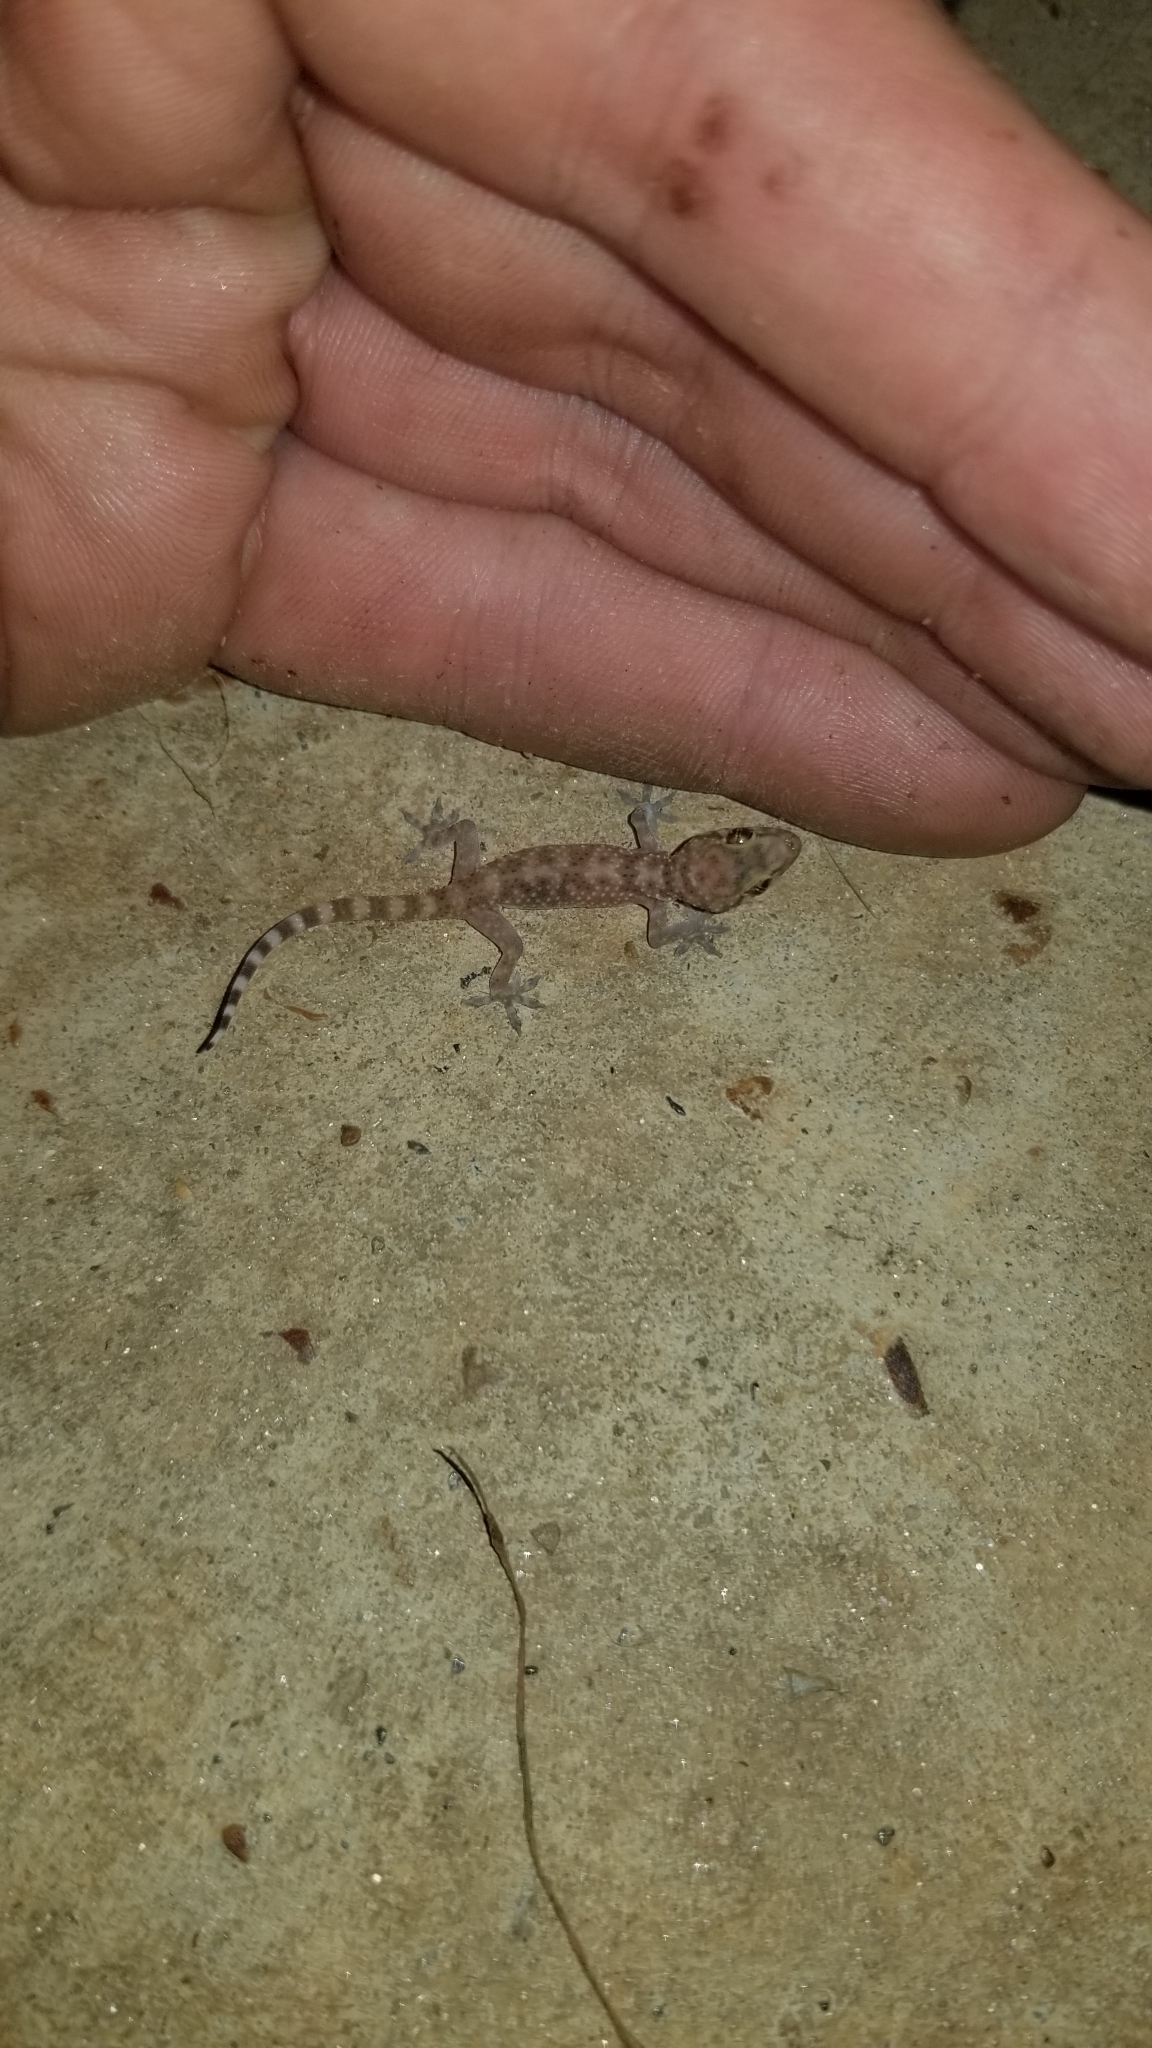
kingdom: Animalia
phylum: Chordata
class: Squamata
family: Gekkonidae
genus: Hemidactylus
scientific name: Hemidactylus turcicus
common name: Turkish gecko
